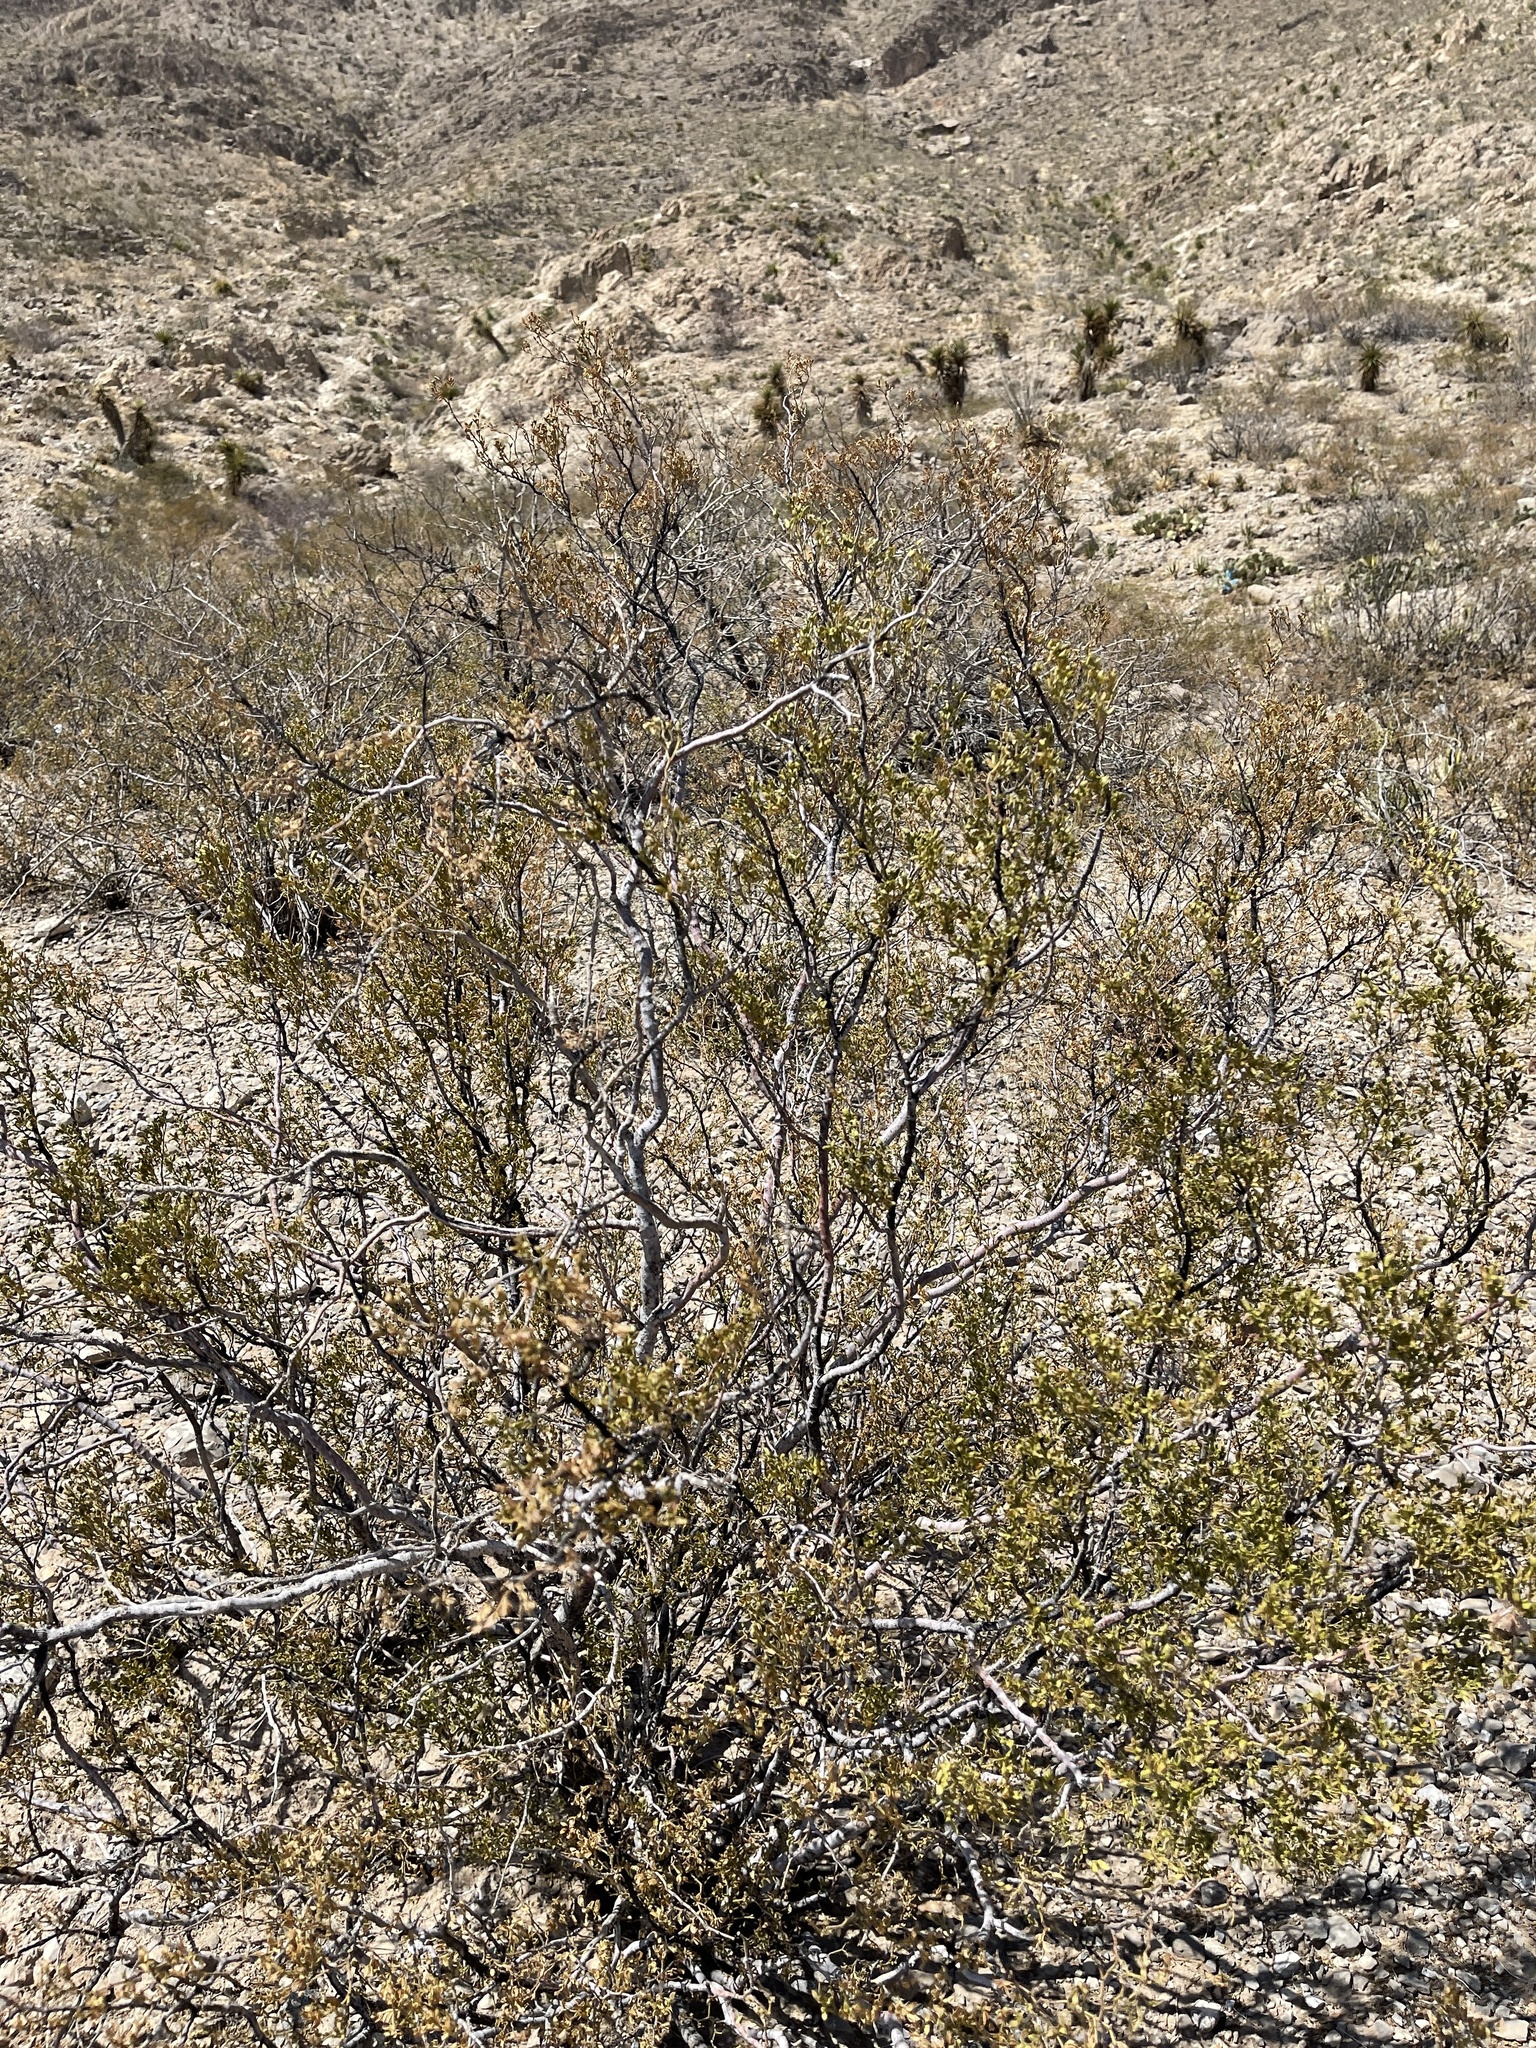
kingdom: Plantae
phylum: Tracheophyta
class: Magnoliopsida
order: Zygophyllales
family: Zygophyllaceae
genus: Larrea
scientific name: Larrea tridentata
